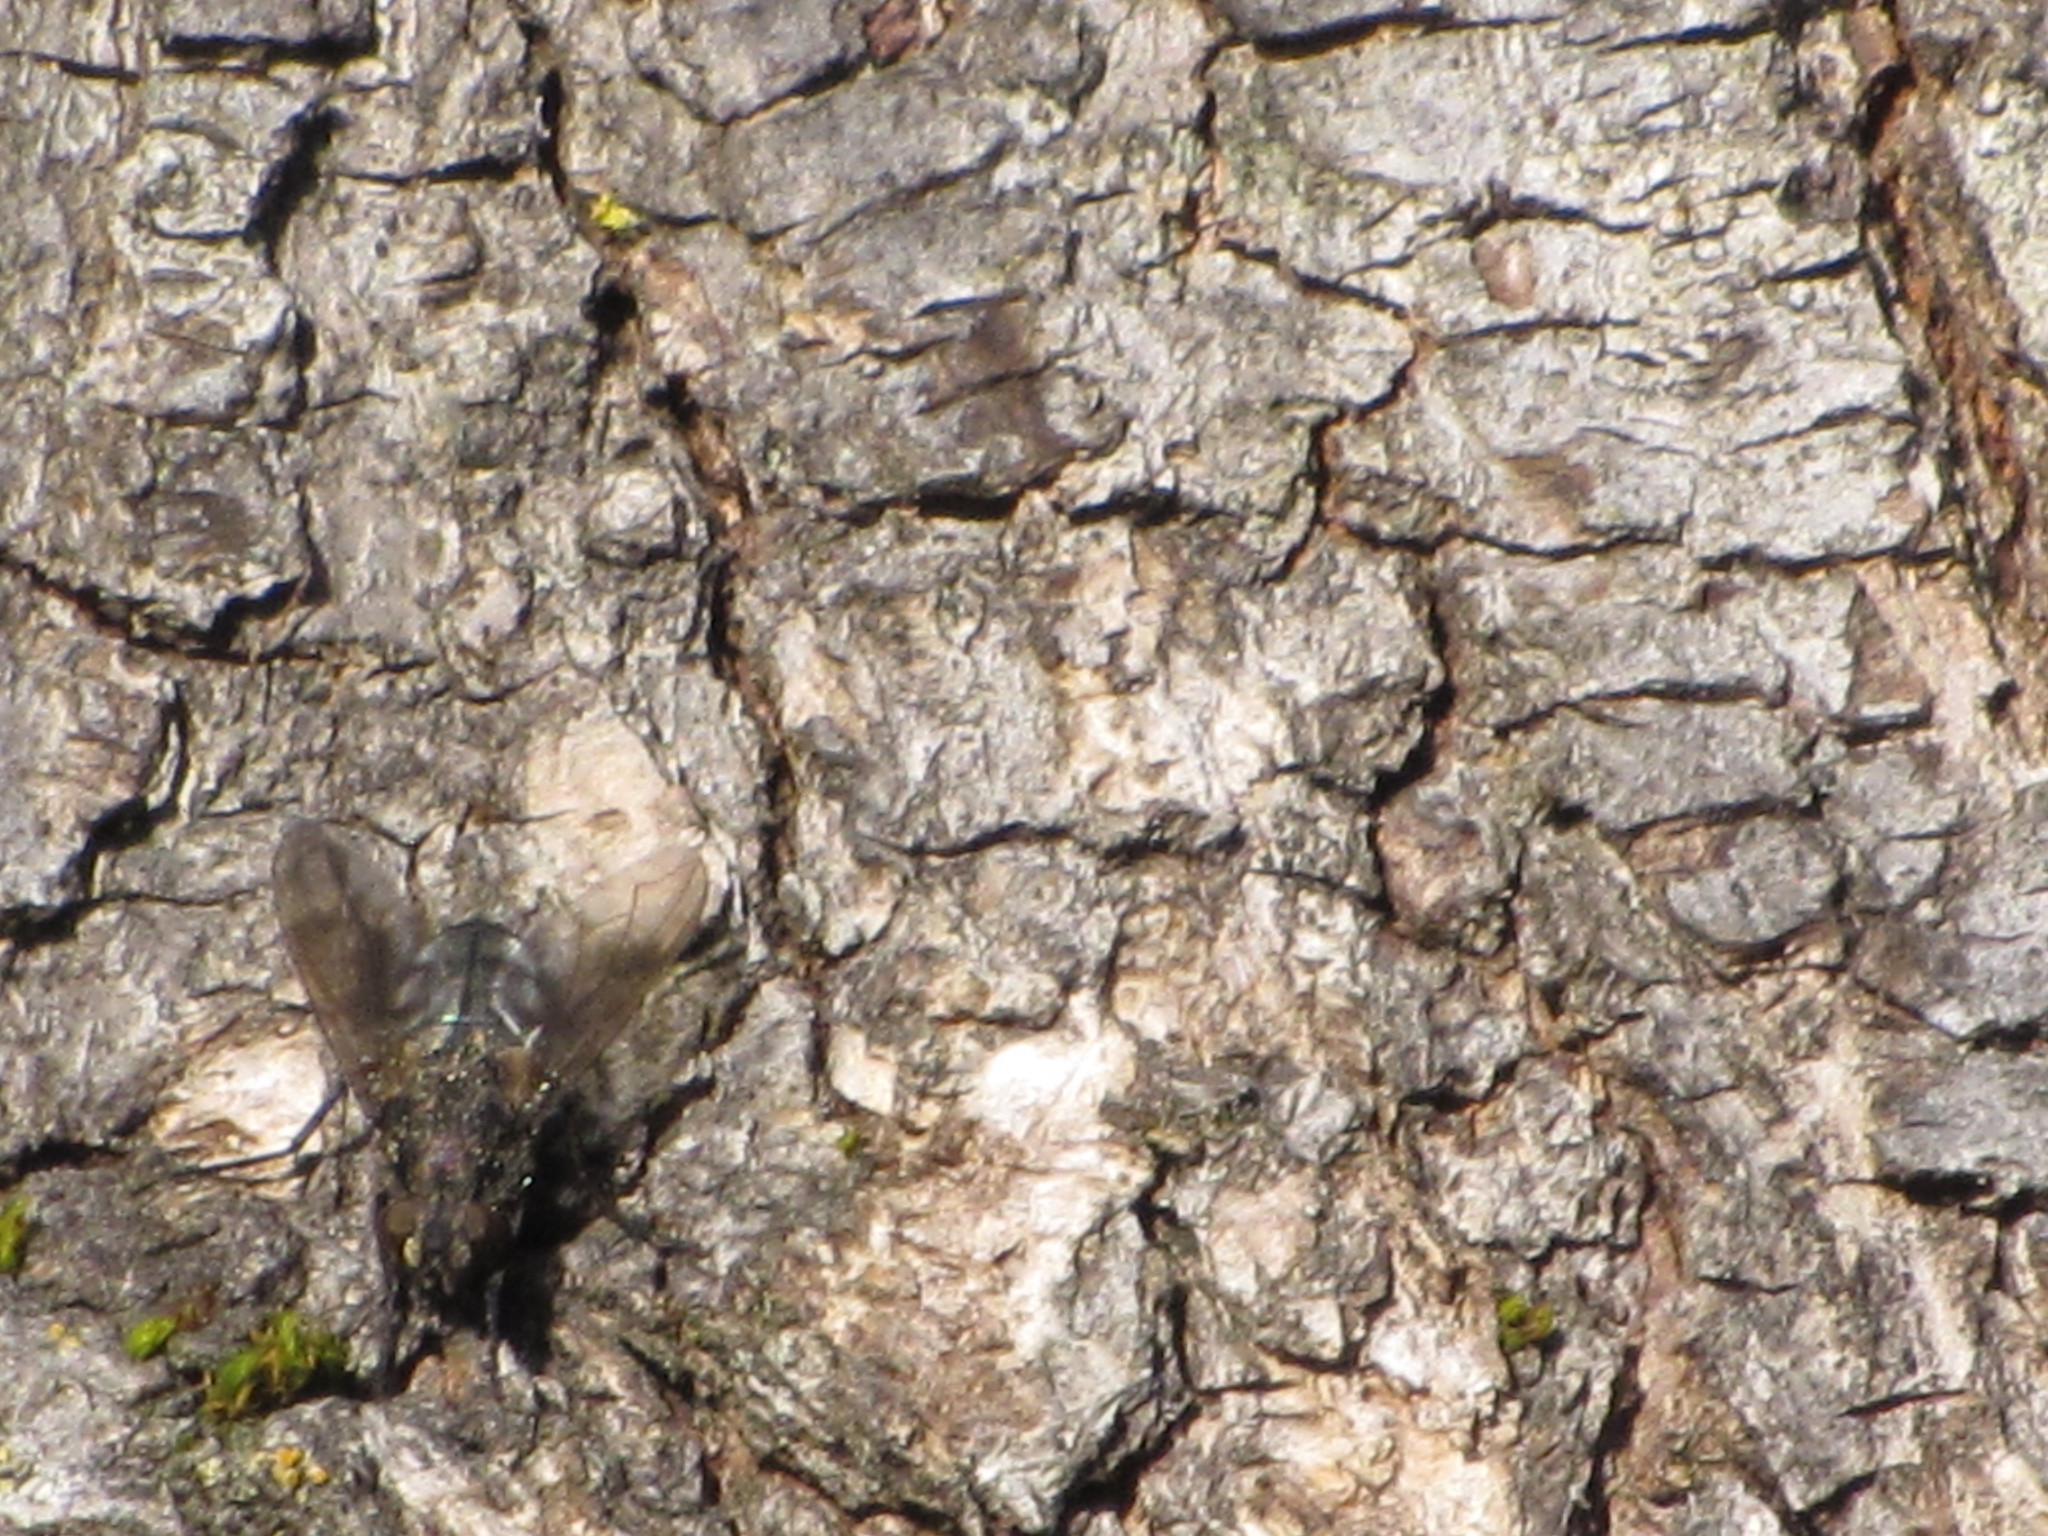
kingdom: Animalia
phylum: Arthropoda
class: Insecta
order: Diptera
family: Polleniidae
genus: Pollenia
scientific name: Pollenia
